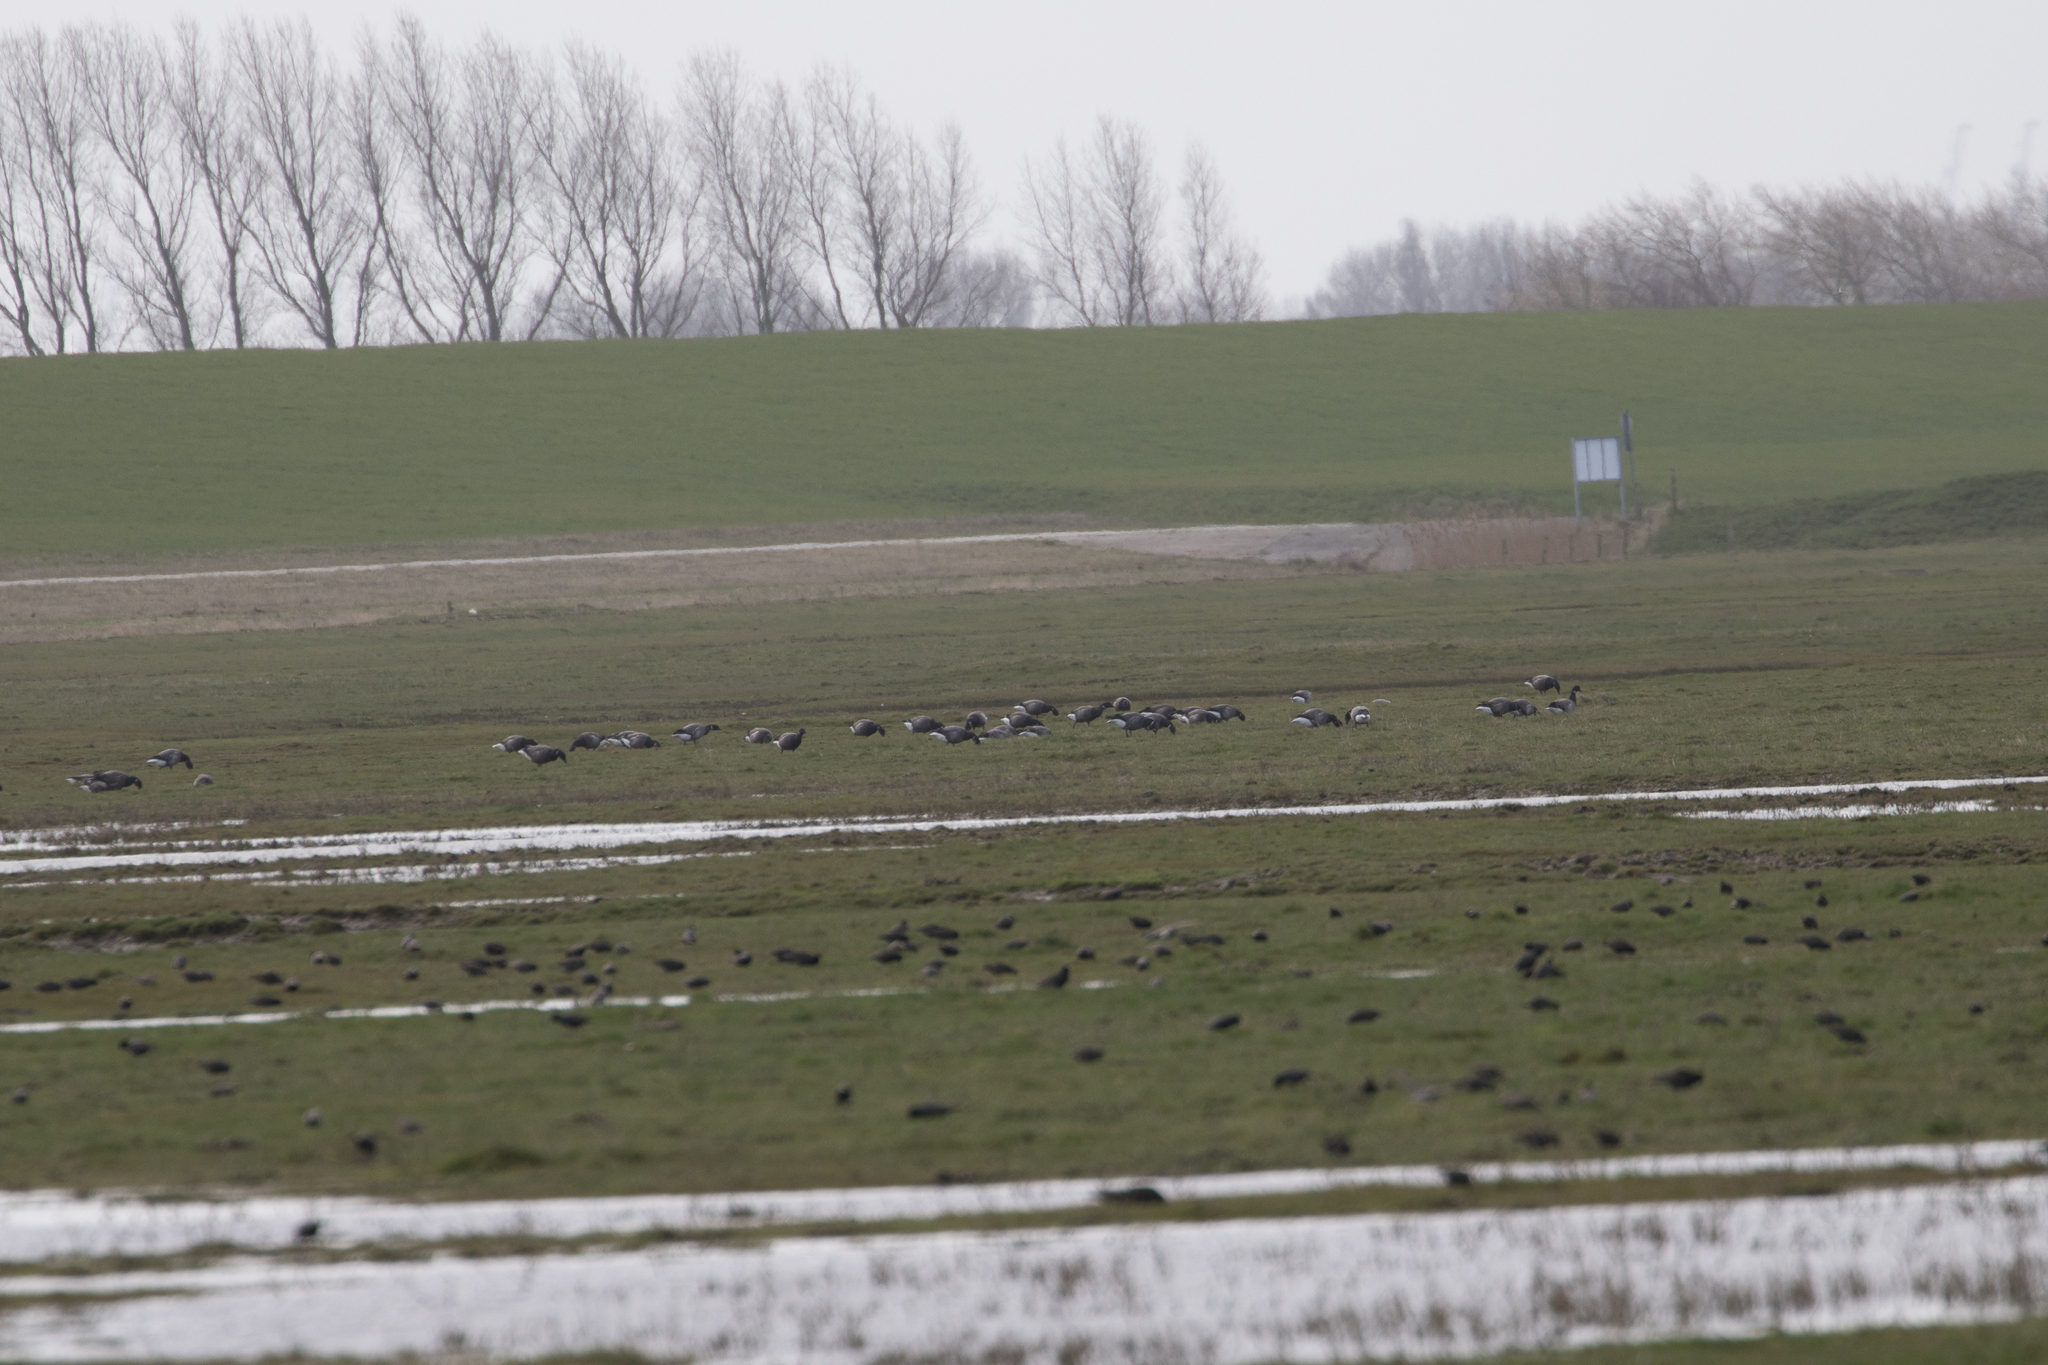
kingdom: Animalia
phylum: Chordata
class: Aves
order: Anseriformes
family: Anatidae
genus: Branta
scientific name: Branta bernicla
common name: Brant goose
